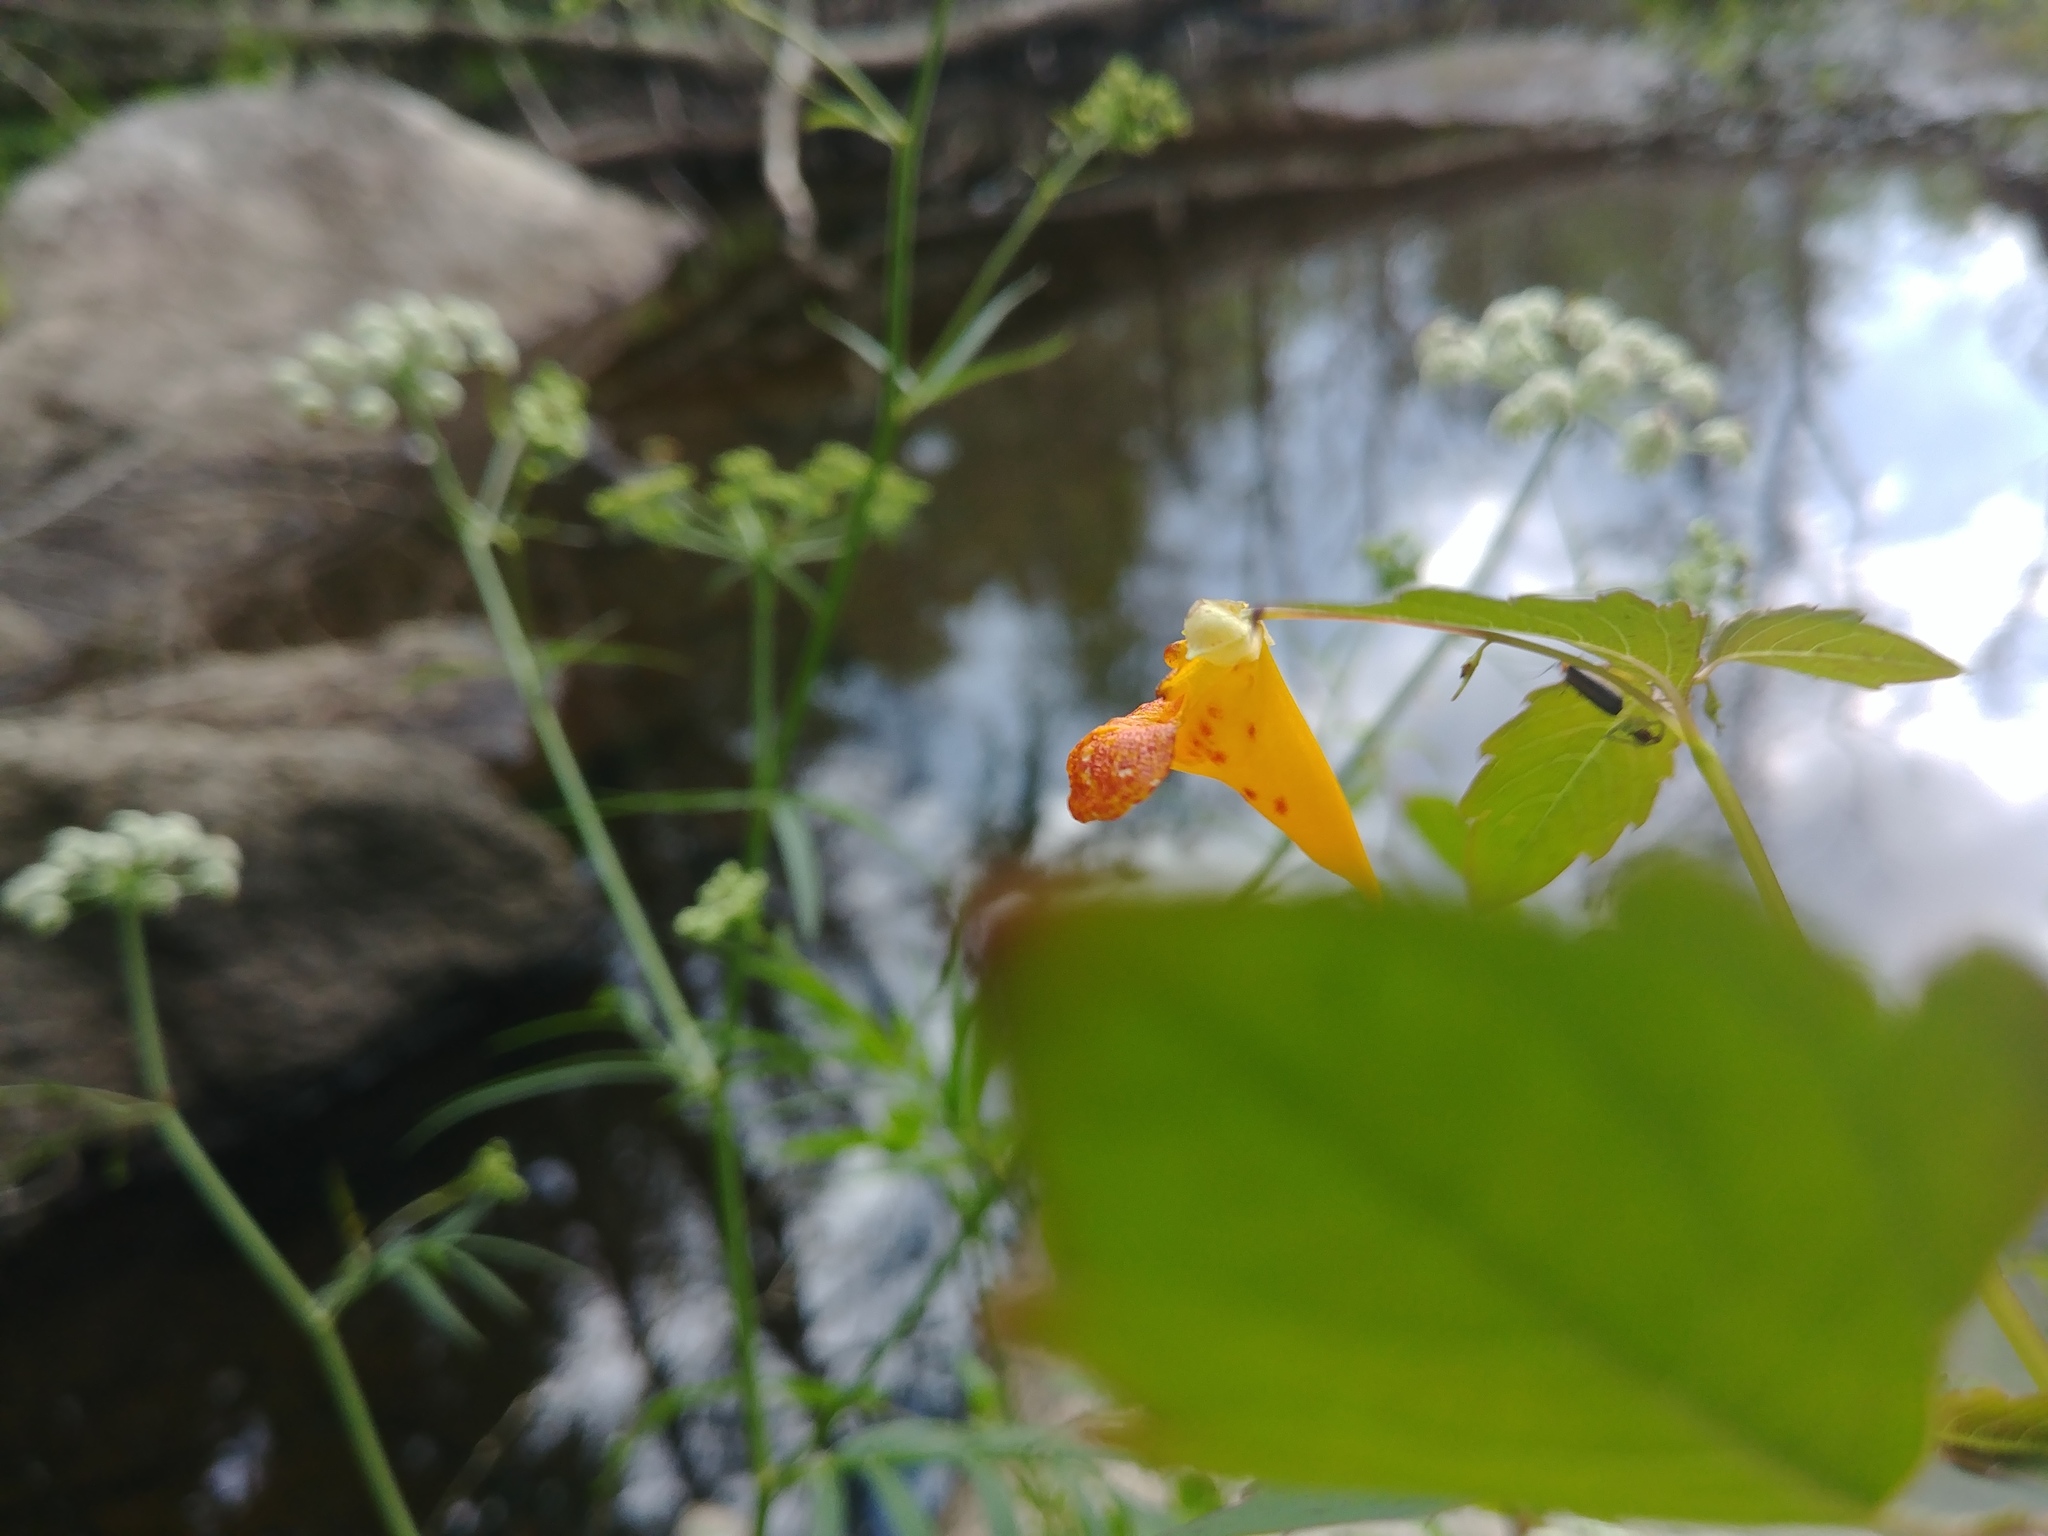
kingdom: Plantae
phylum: Tracheophyta
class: Magnoliopsida
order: Ericales
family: Balsaminaceae
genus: Impatiens
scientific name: Impatiens capensis
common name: Orange balsam
